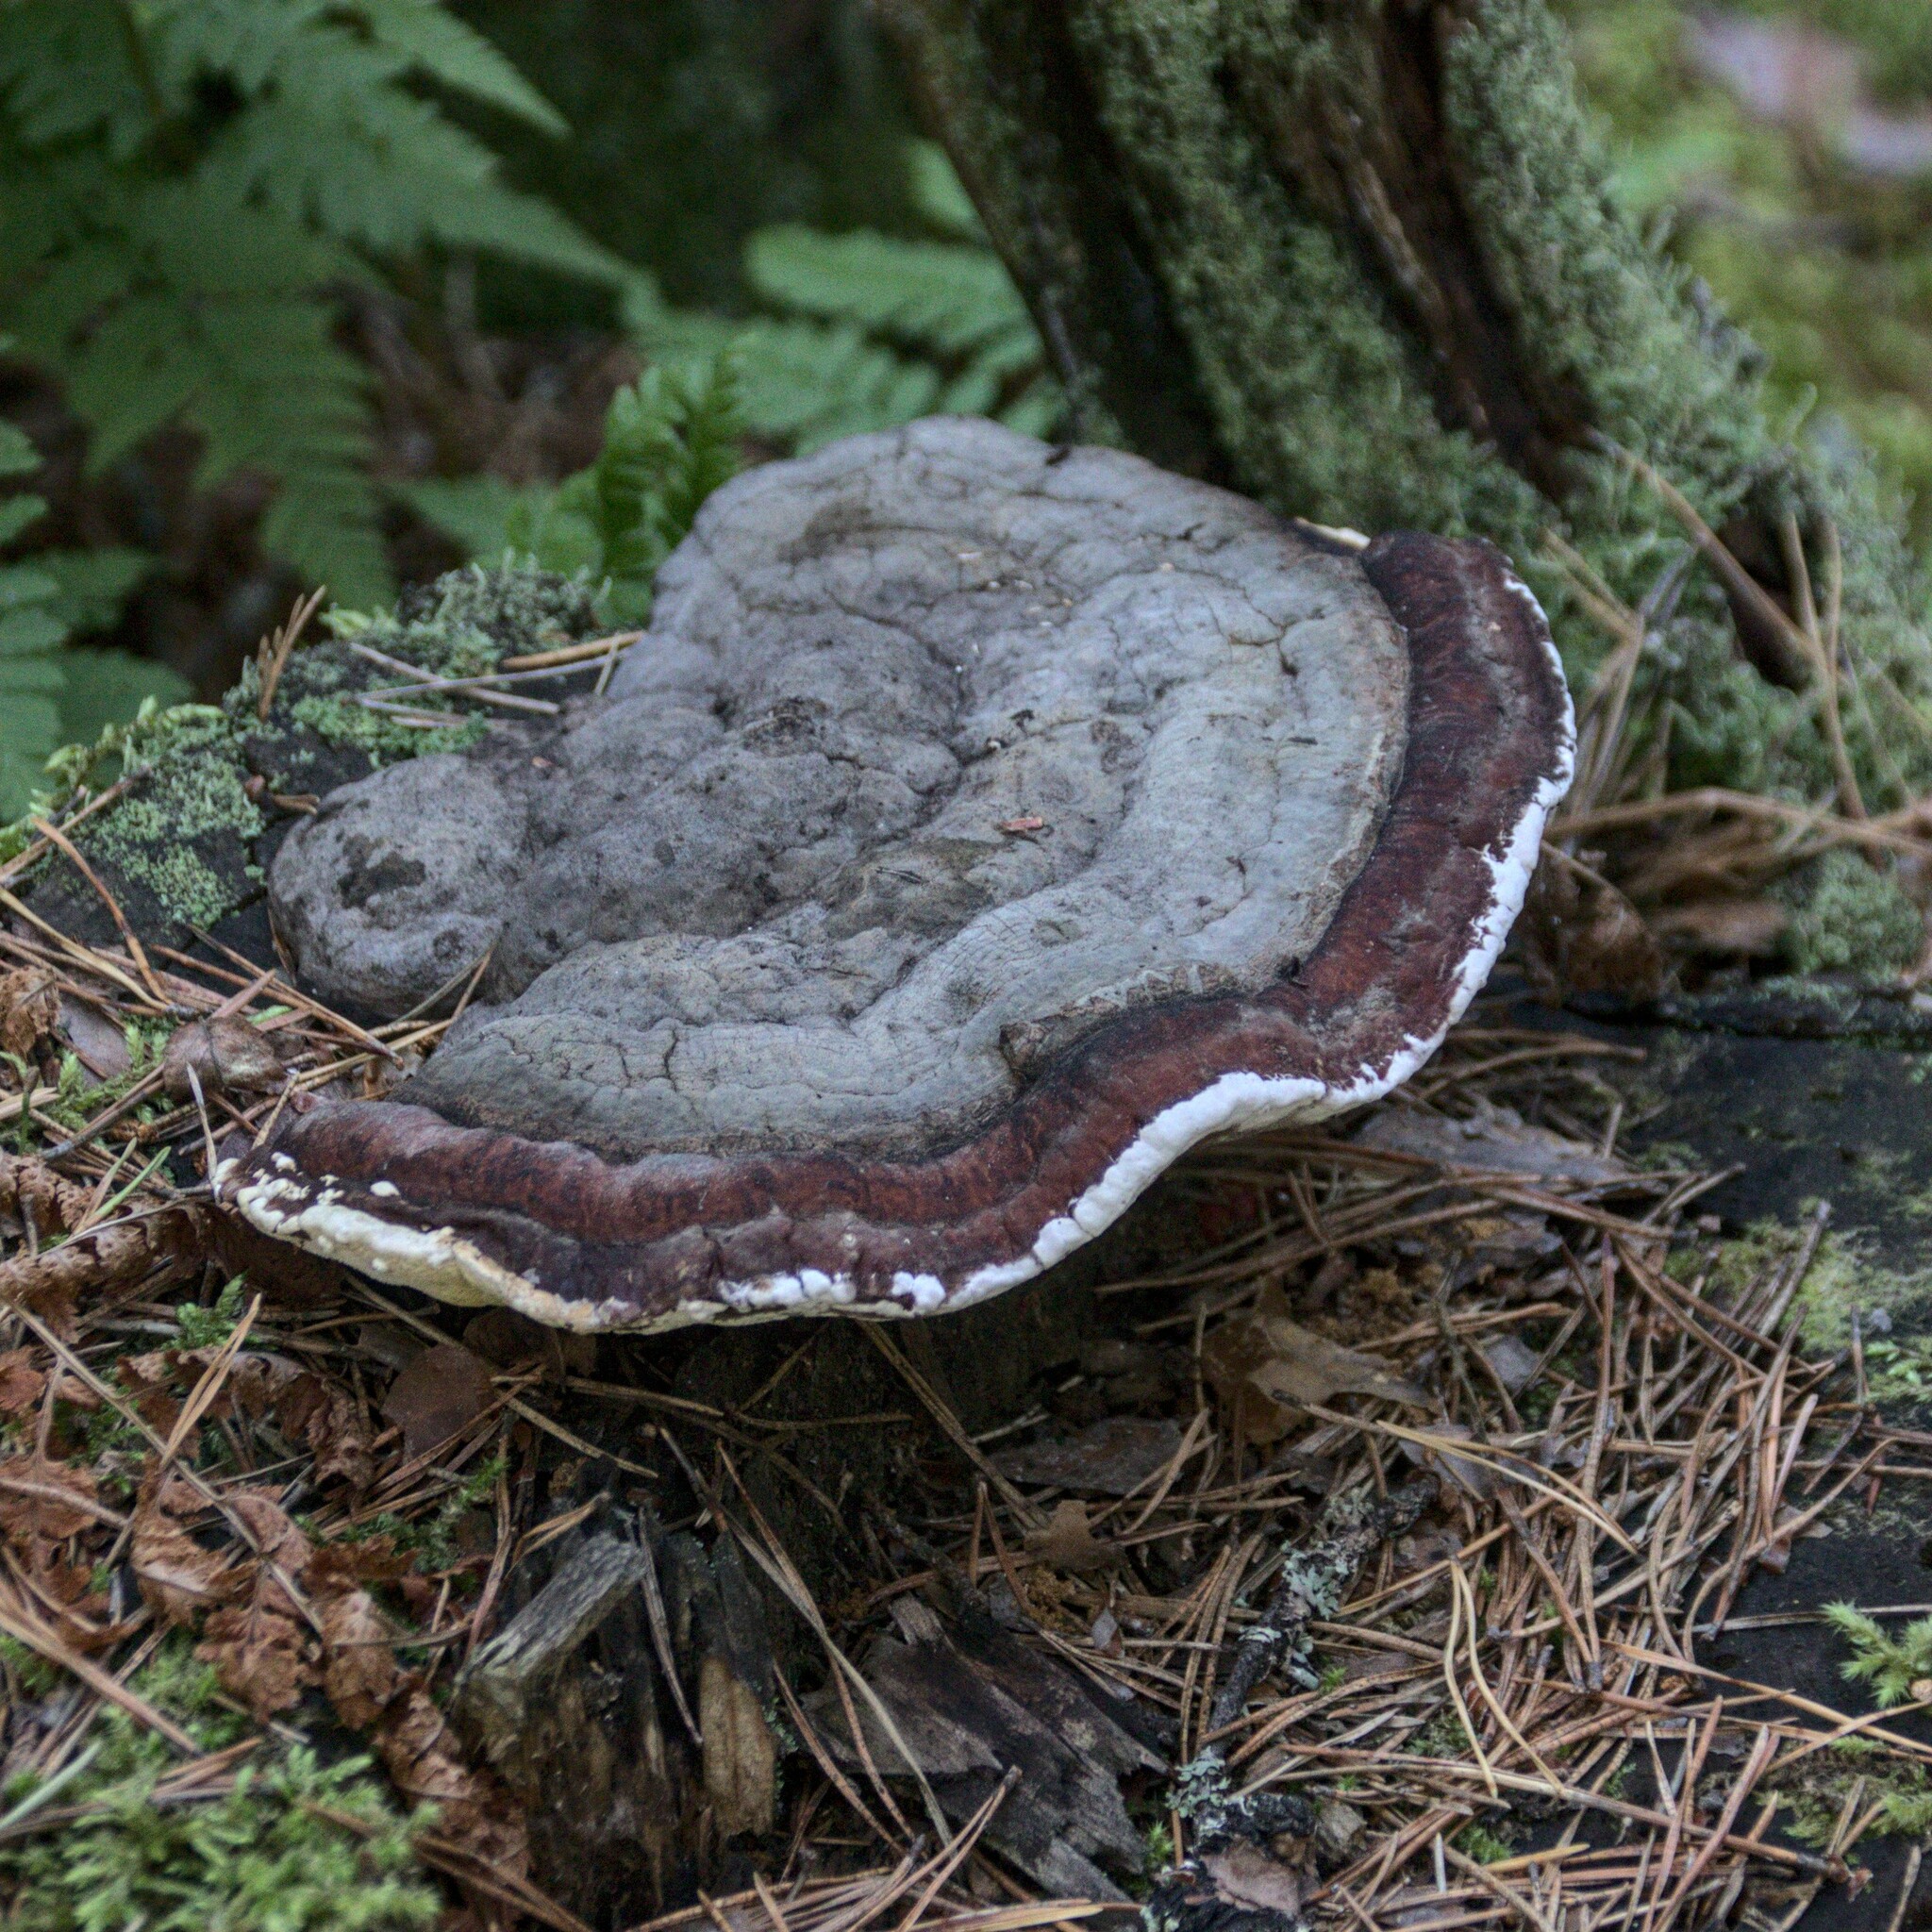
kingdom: Fungi
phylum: Basidiomycota
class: Agaricomycetes
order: Polyporales
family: Fomitopsidaceae
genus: Fomitopsis
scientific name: Fomitopsis pinicola
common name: Red-belted bracket
